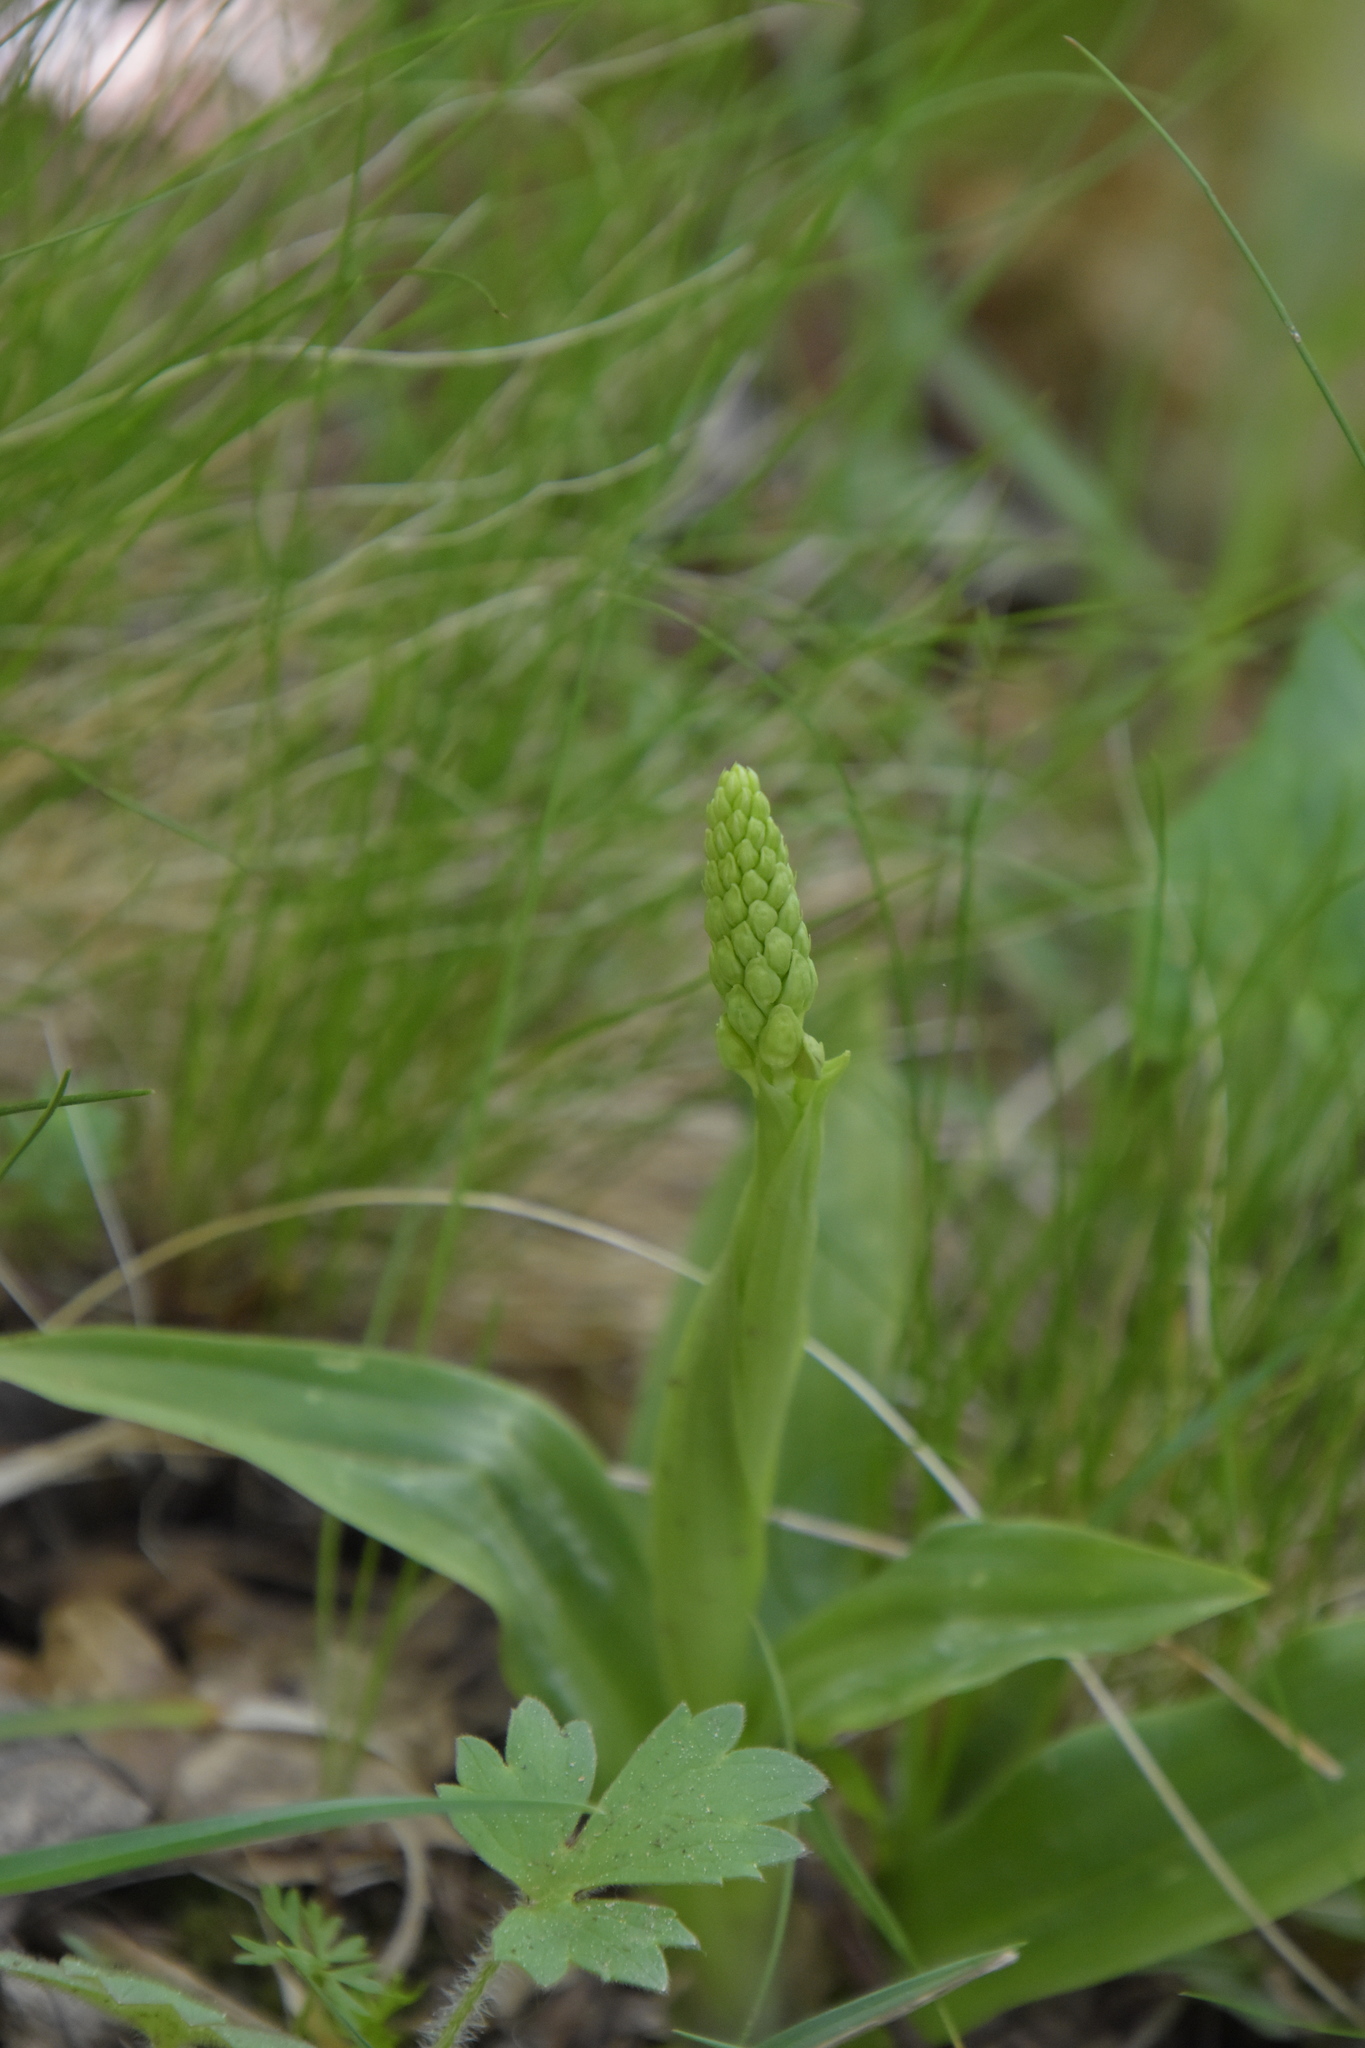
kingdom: Plantae
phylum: Tracheophyta
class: Liliopsida
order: Asparagales
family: Orchidaceae
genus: Orchis
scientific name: Orchis anthropophora
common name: Man orchid
